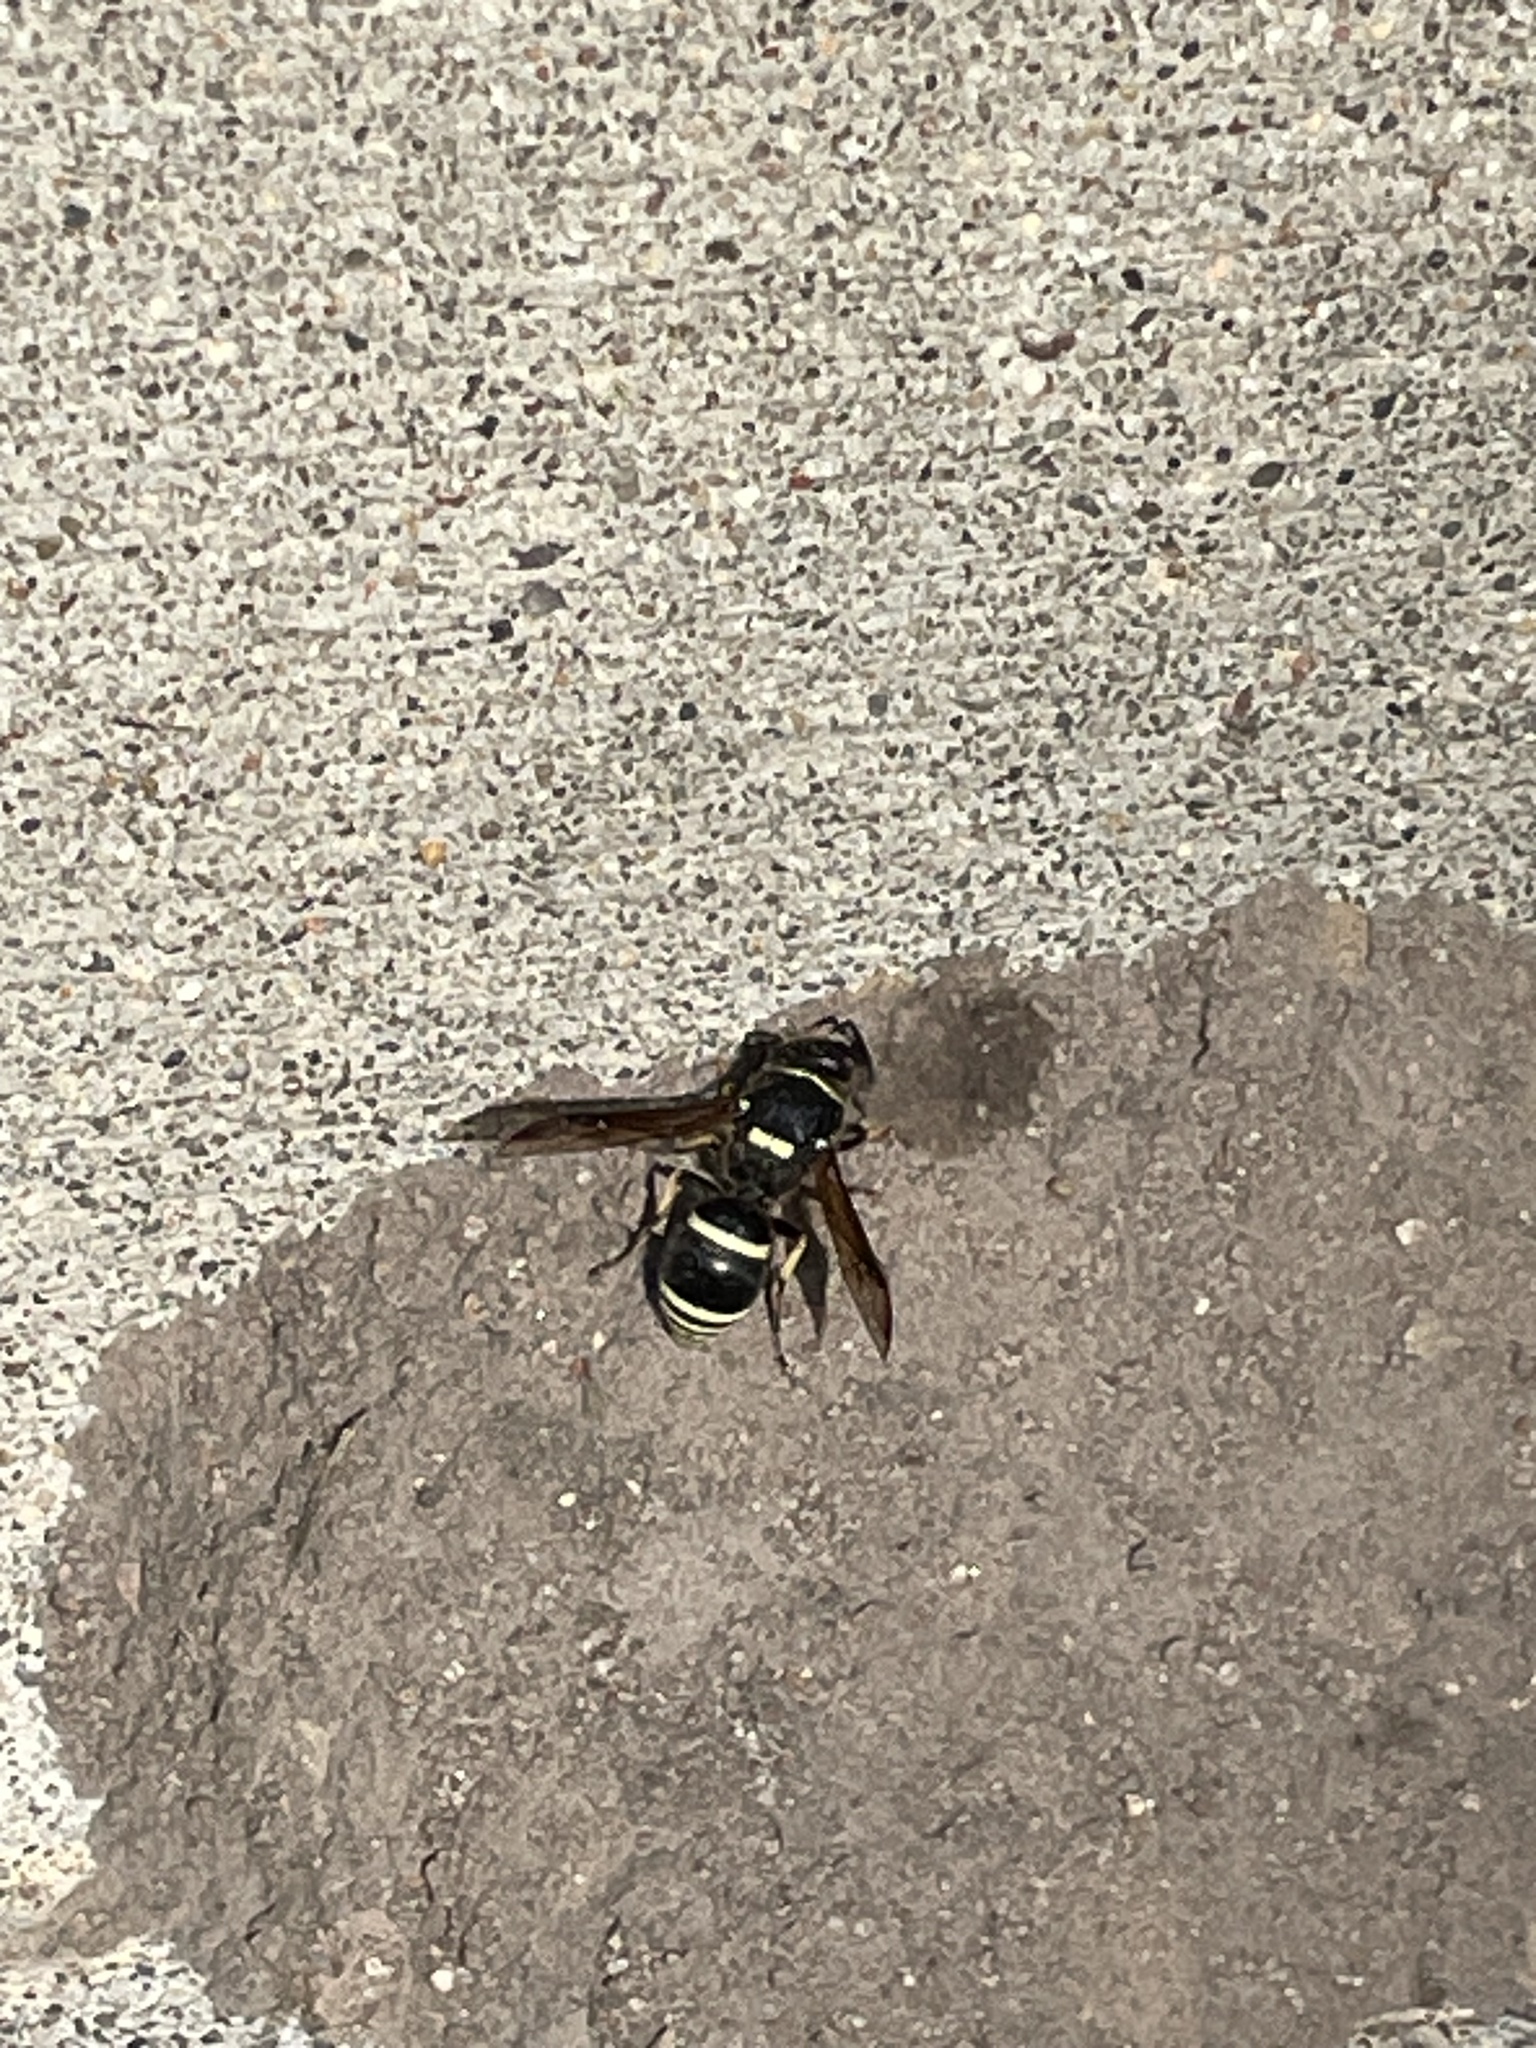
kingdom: Animalia
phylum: Arthropoda
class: Insecta
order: Hymenoptera
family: Vespidae
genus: Ancistrocerus
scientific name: Ancistrocerus waldenii
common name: Walden’s potter wasp
